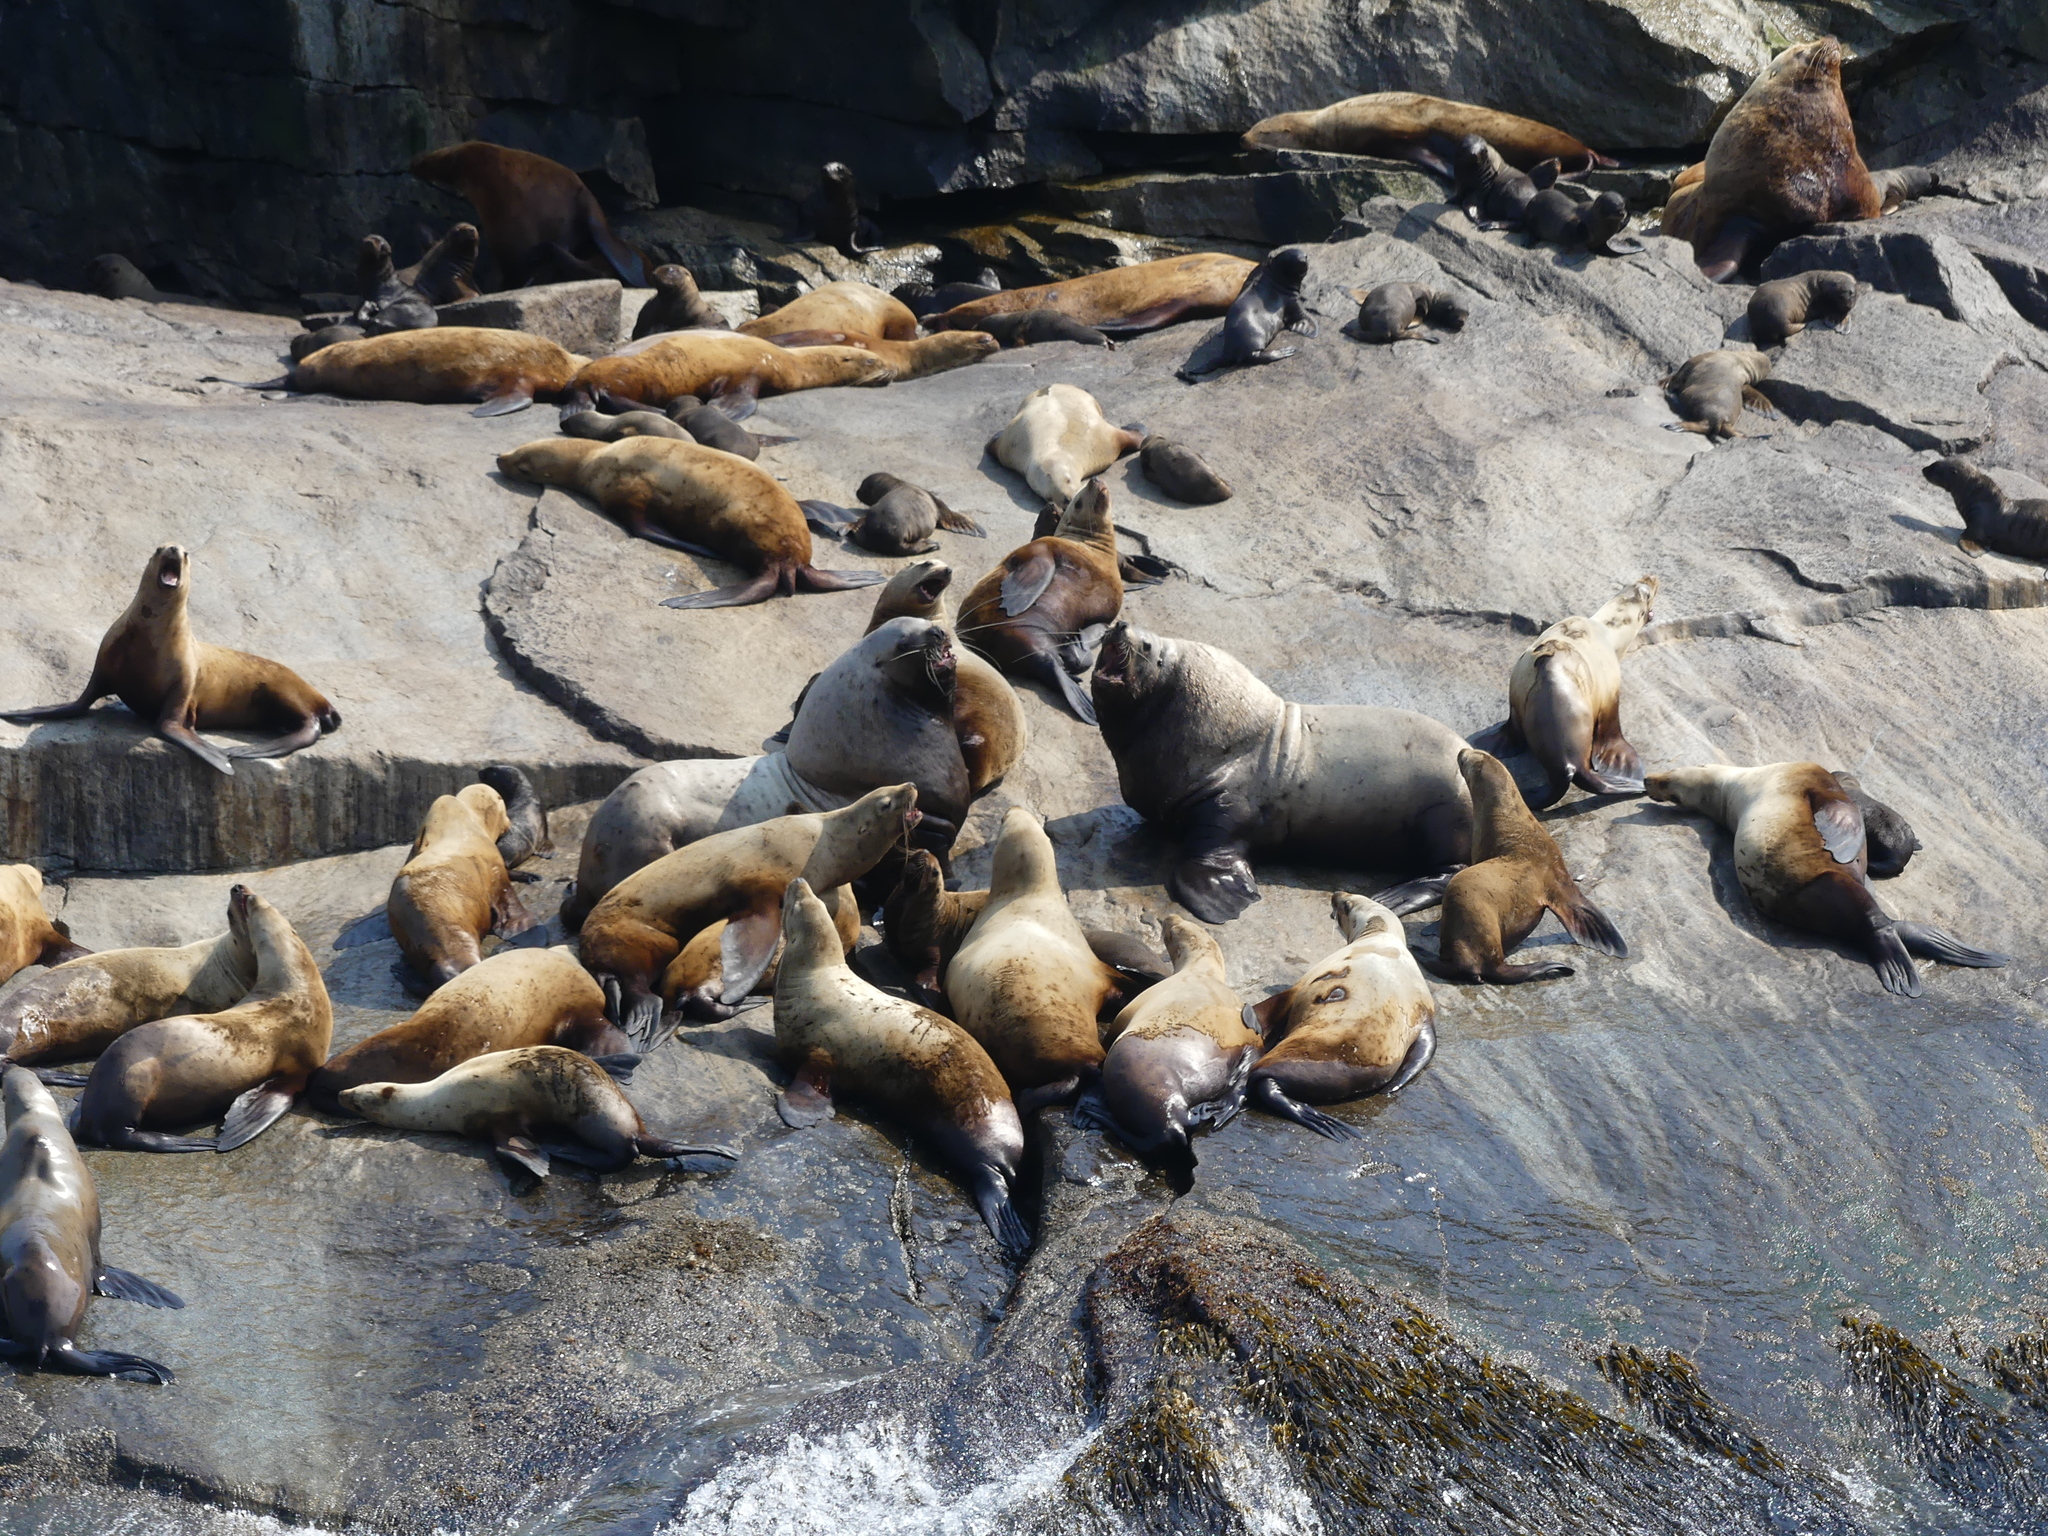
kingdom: Animalia
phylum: Chordata
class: Mammalia
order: Carnivora
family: Otariidae
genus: Eumetopias
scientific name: Eumetopias jubatus
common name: Steller sea lion
